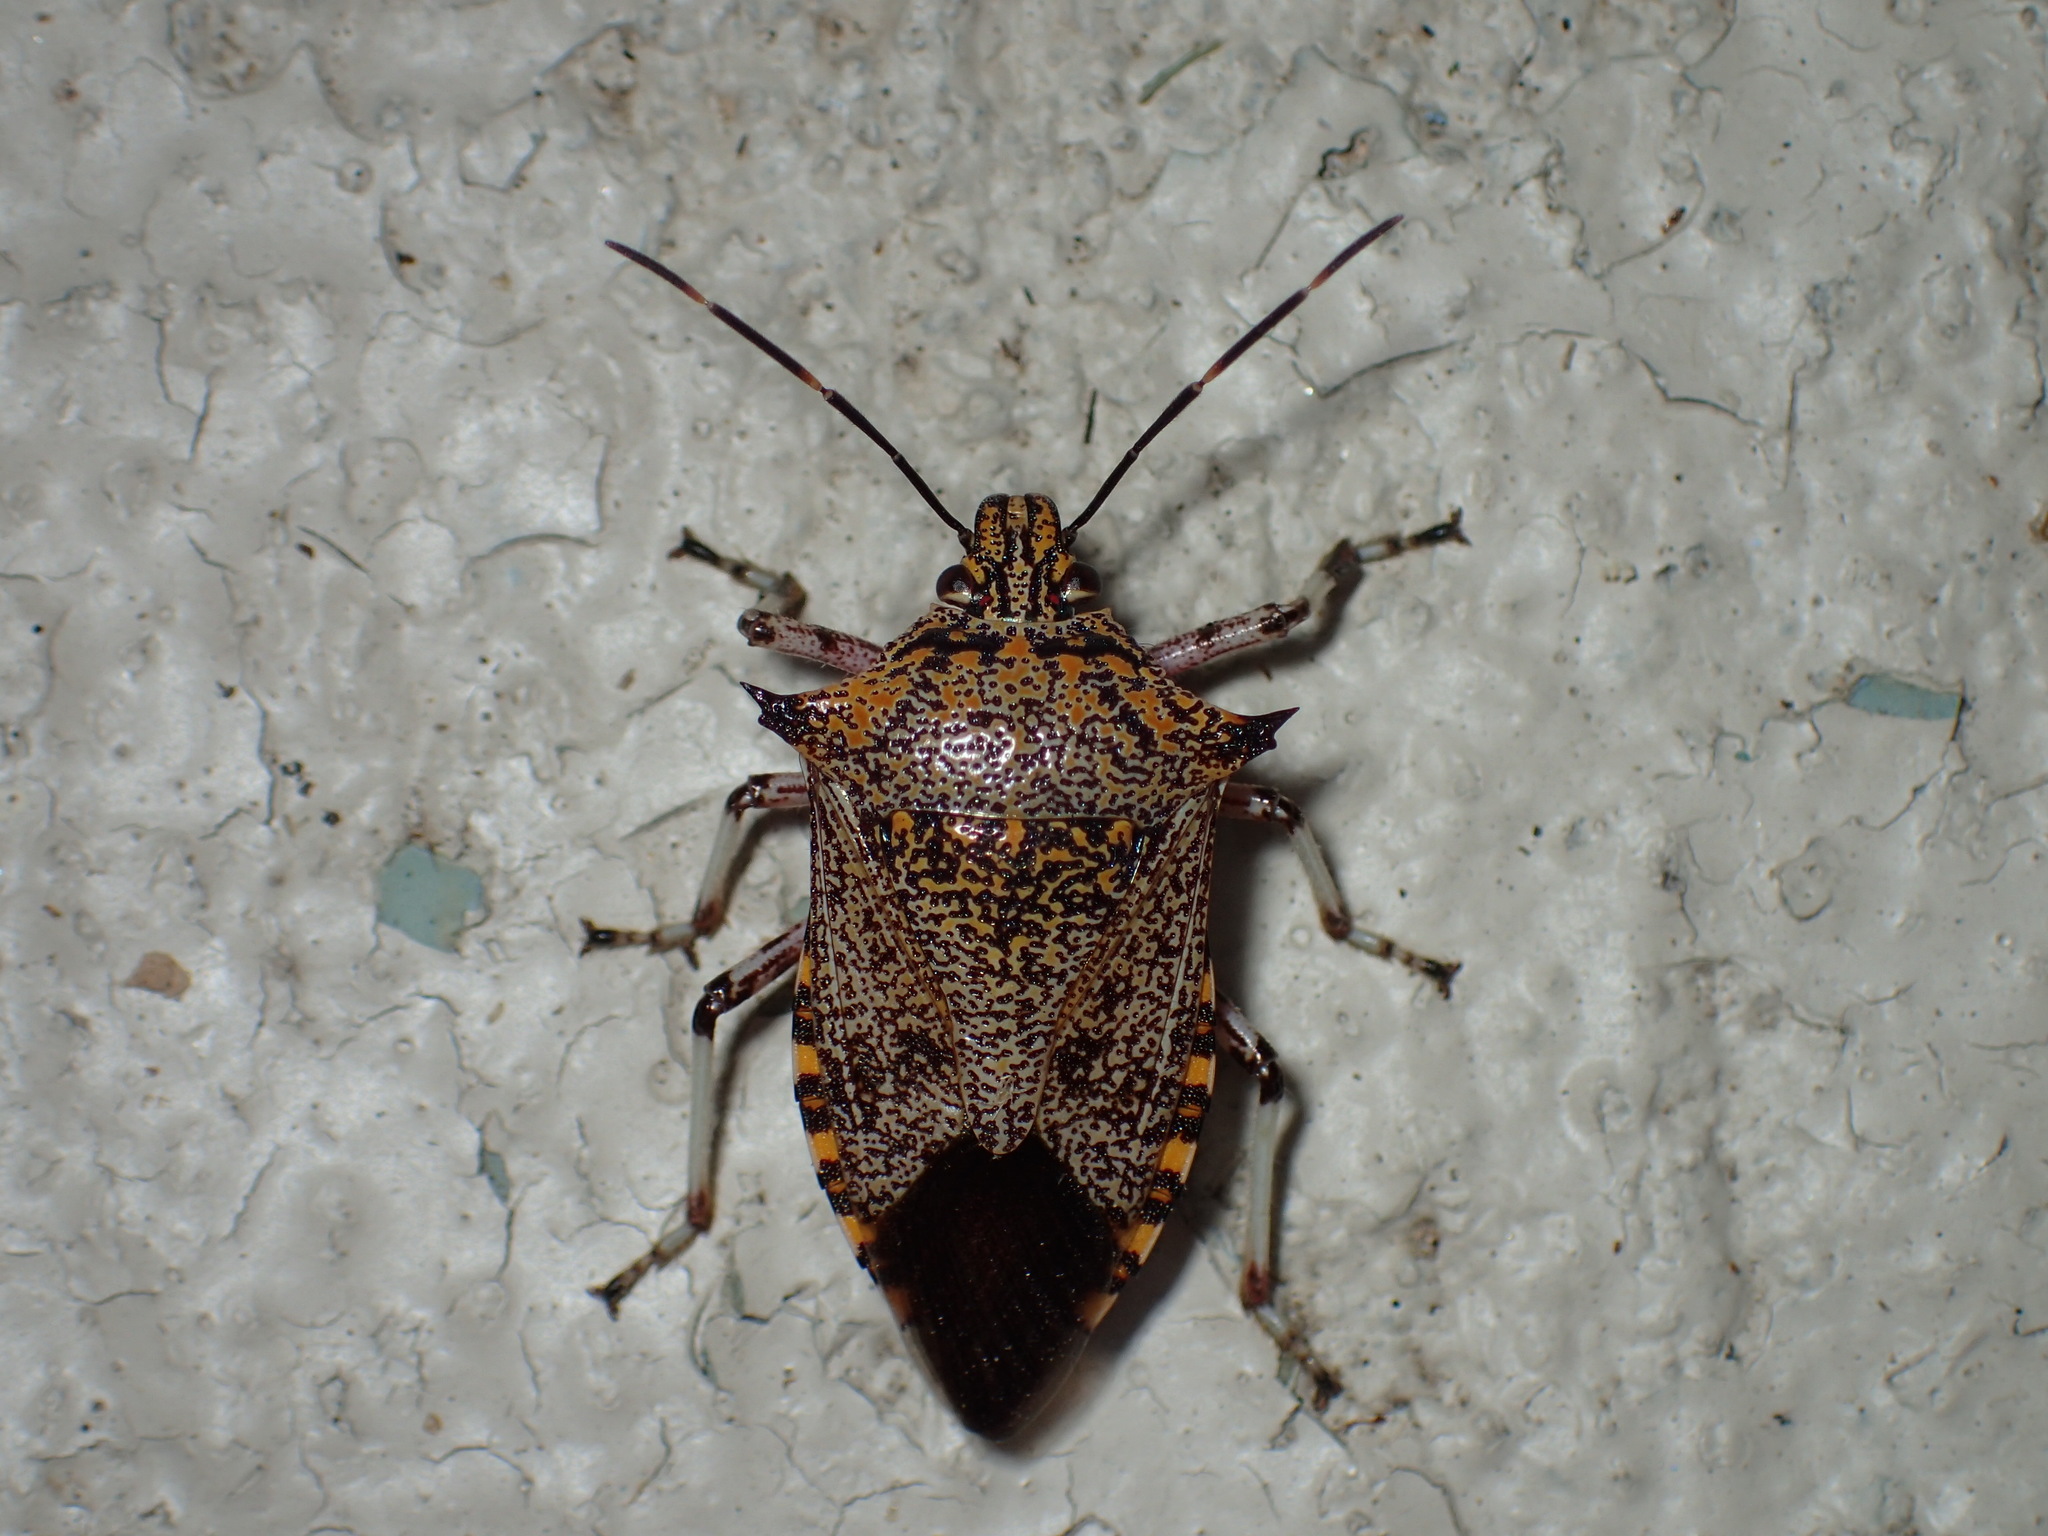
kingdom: Animalia
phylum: Arthropoda
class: Insecta
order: Hemiptera
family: Pentatomidae
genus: Alcaeorrhynchus
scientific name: Alcaeorrhynchus grandis
